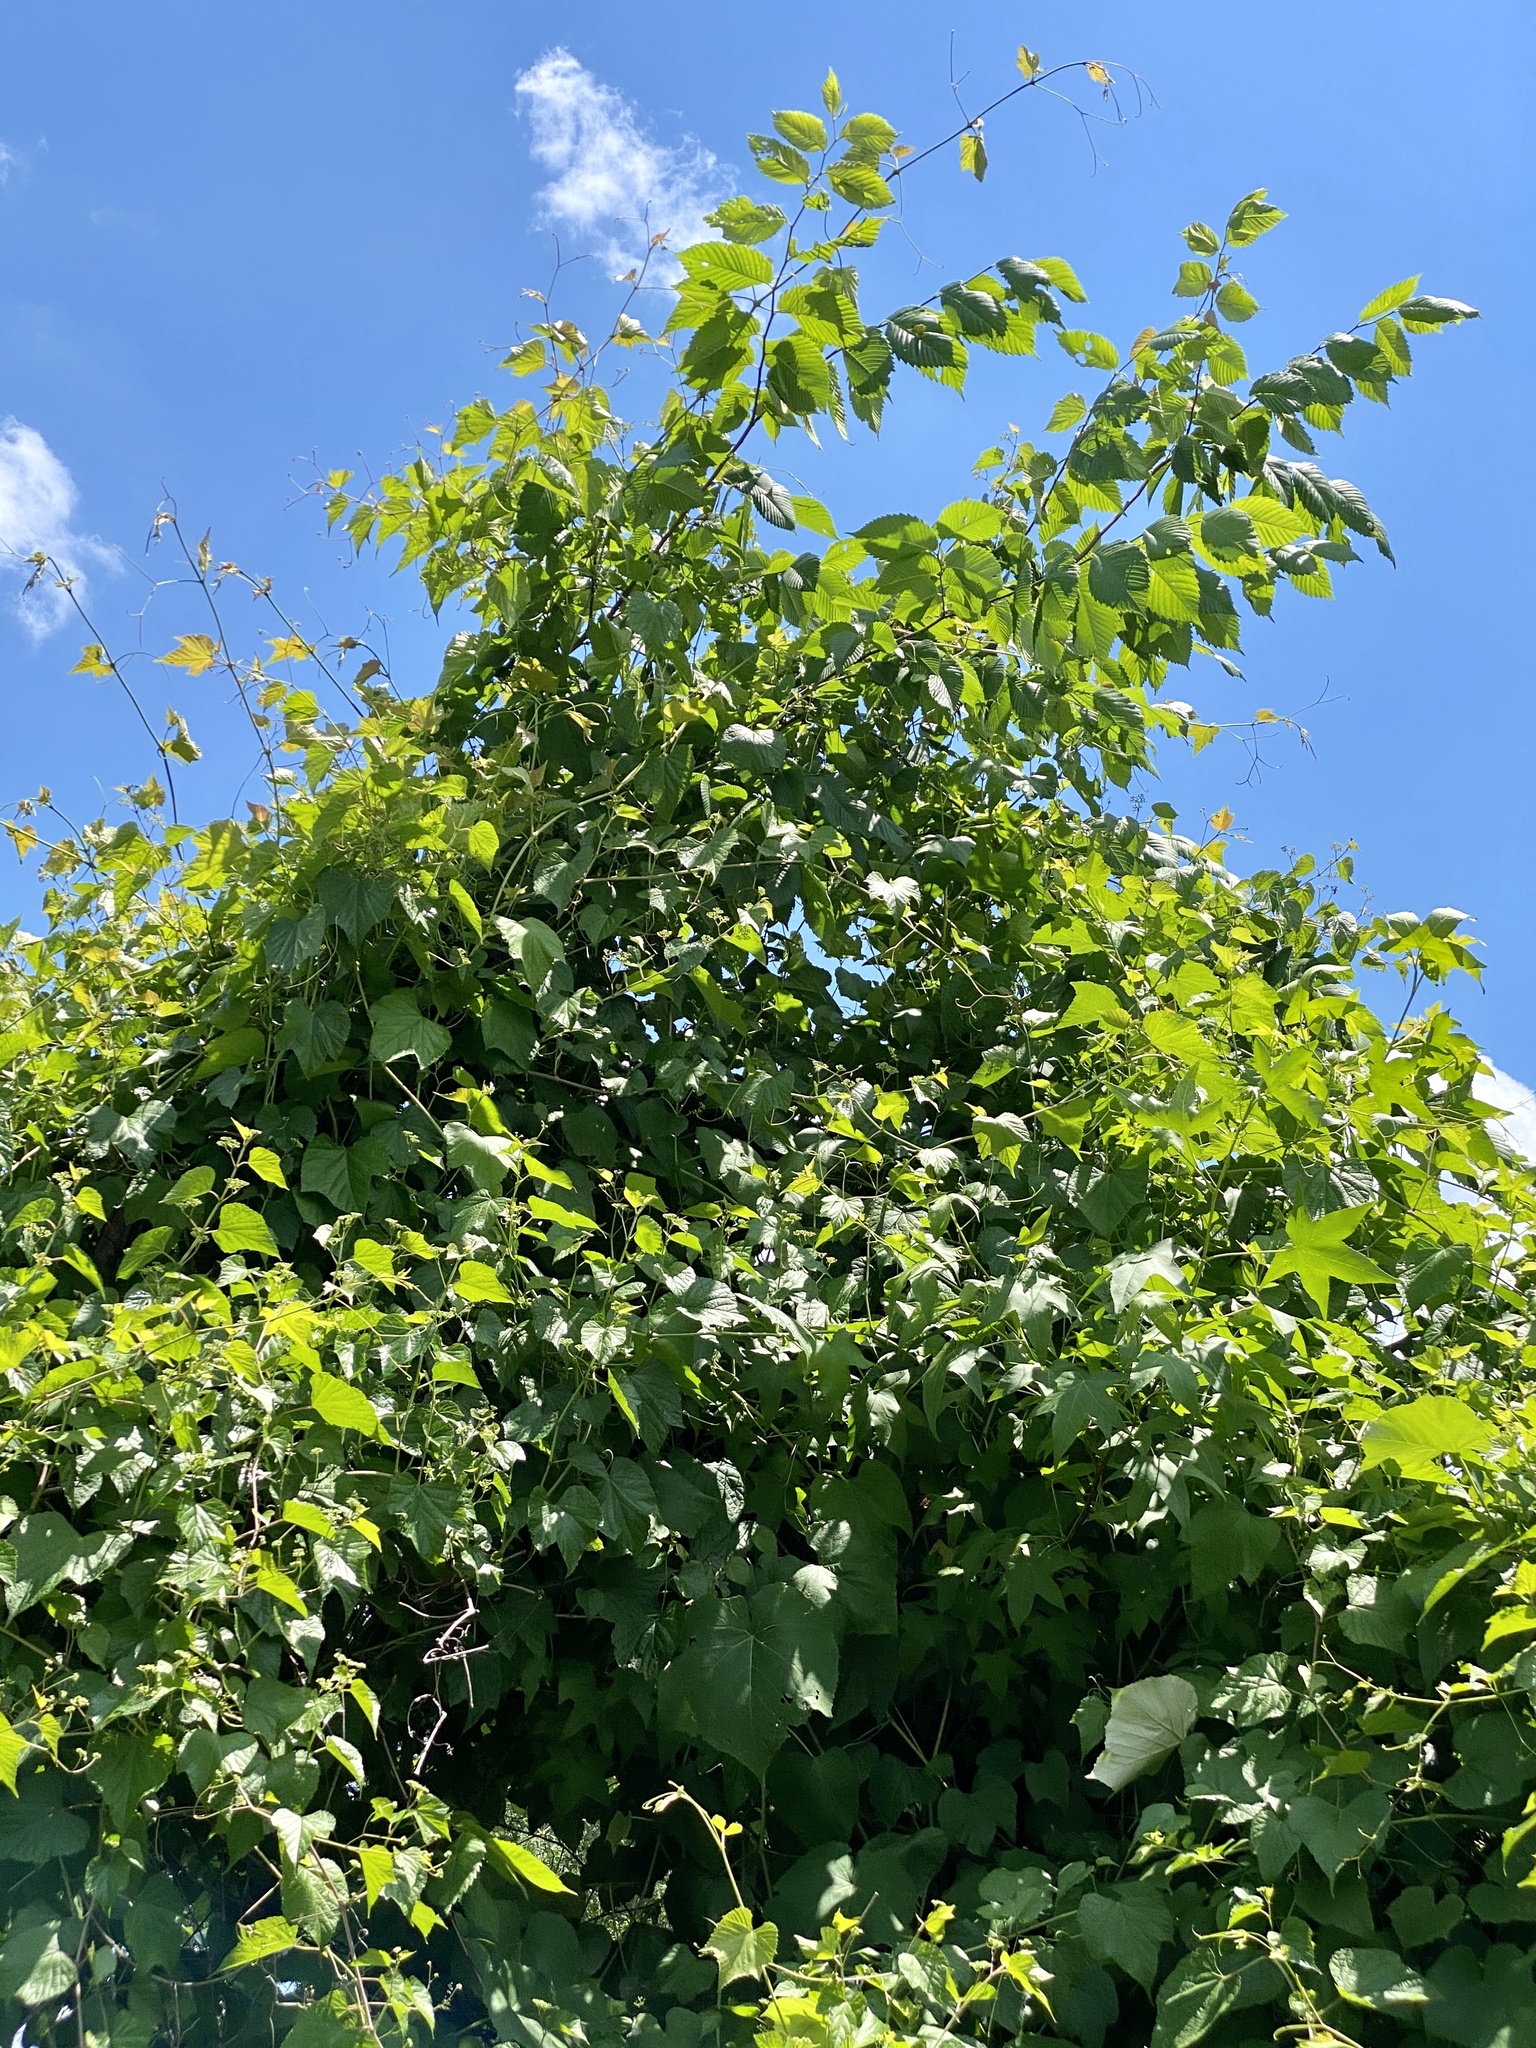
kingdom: Plantae
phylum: Tracheophyta
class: Magnoliopsida
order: Vitales
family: Vitaceae
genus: Ampelopsis
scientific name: Ampelopsis glandulosa
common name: Amur peppervine
